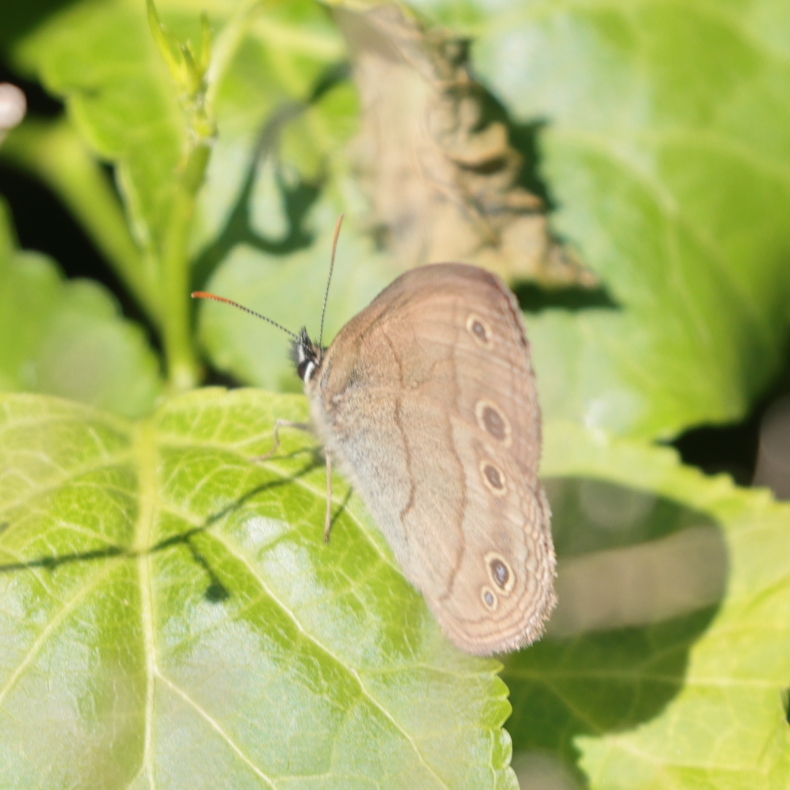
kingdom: Animalia
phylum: Arthropoda
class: Insecta
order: Lepidoptera
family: Nymphalidae
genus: Euptychia
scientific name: Euptychia cymela
